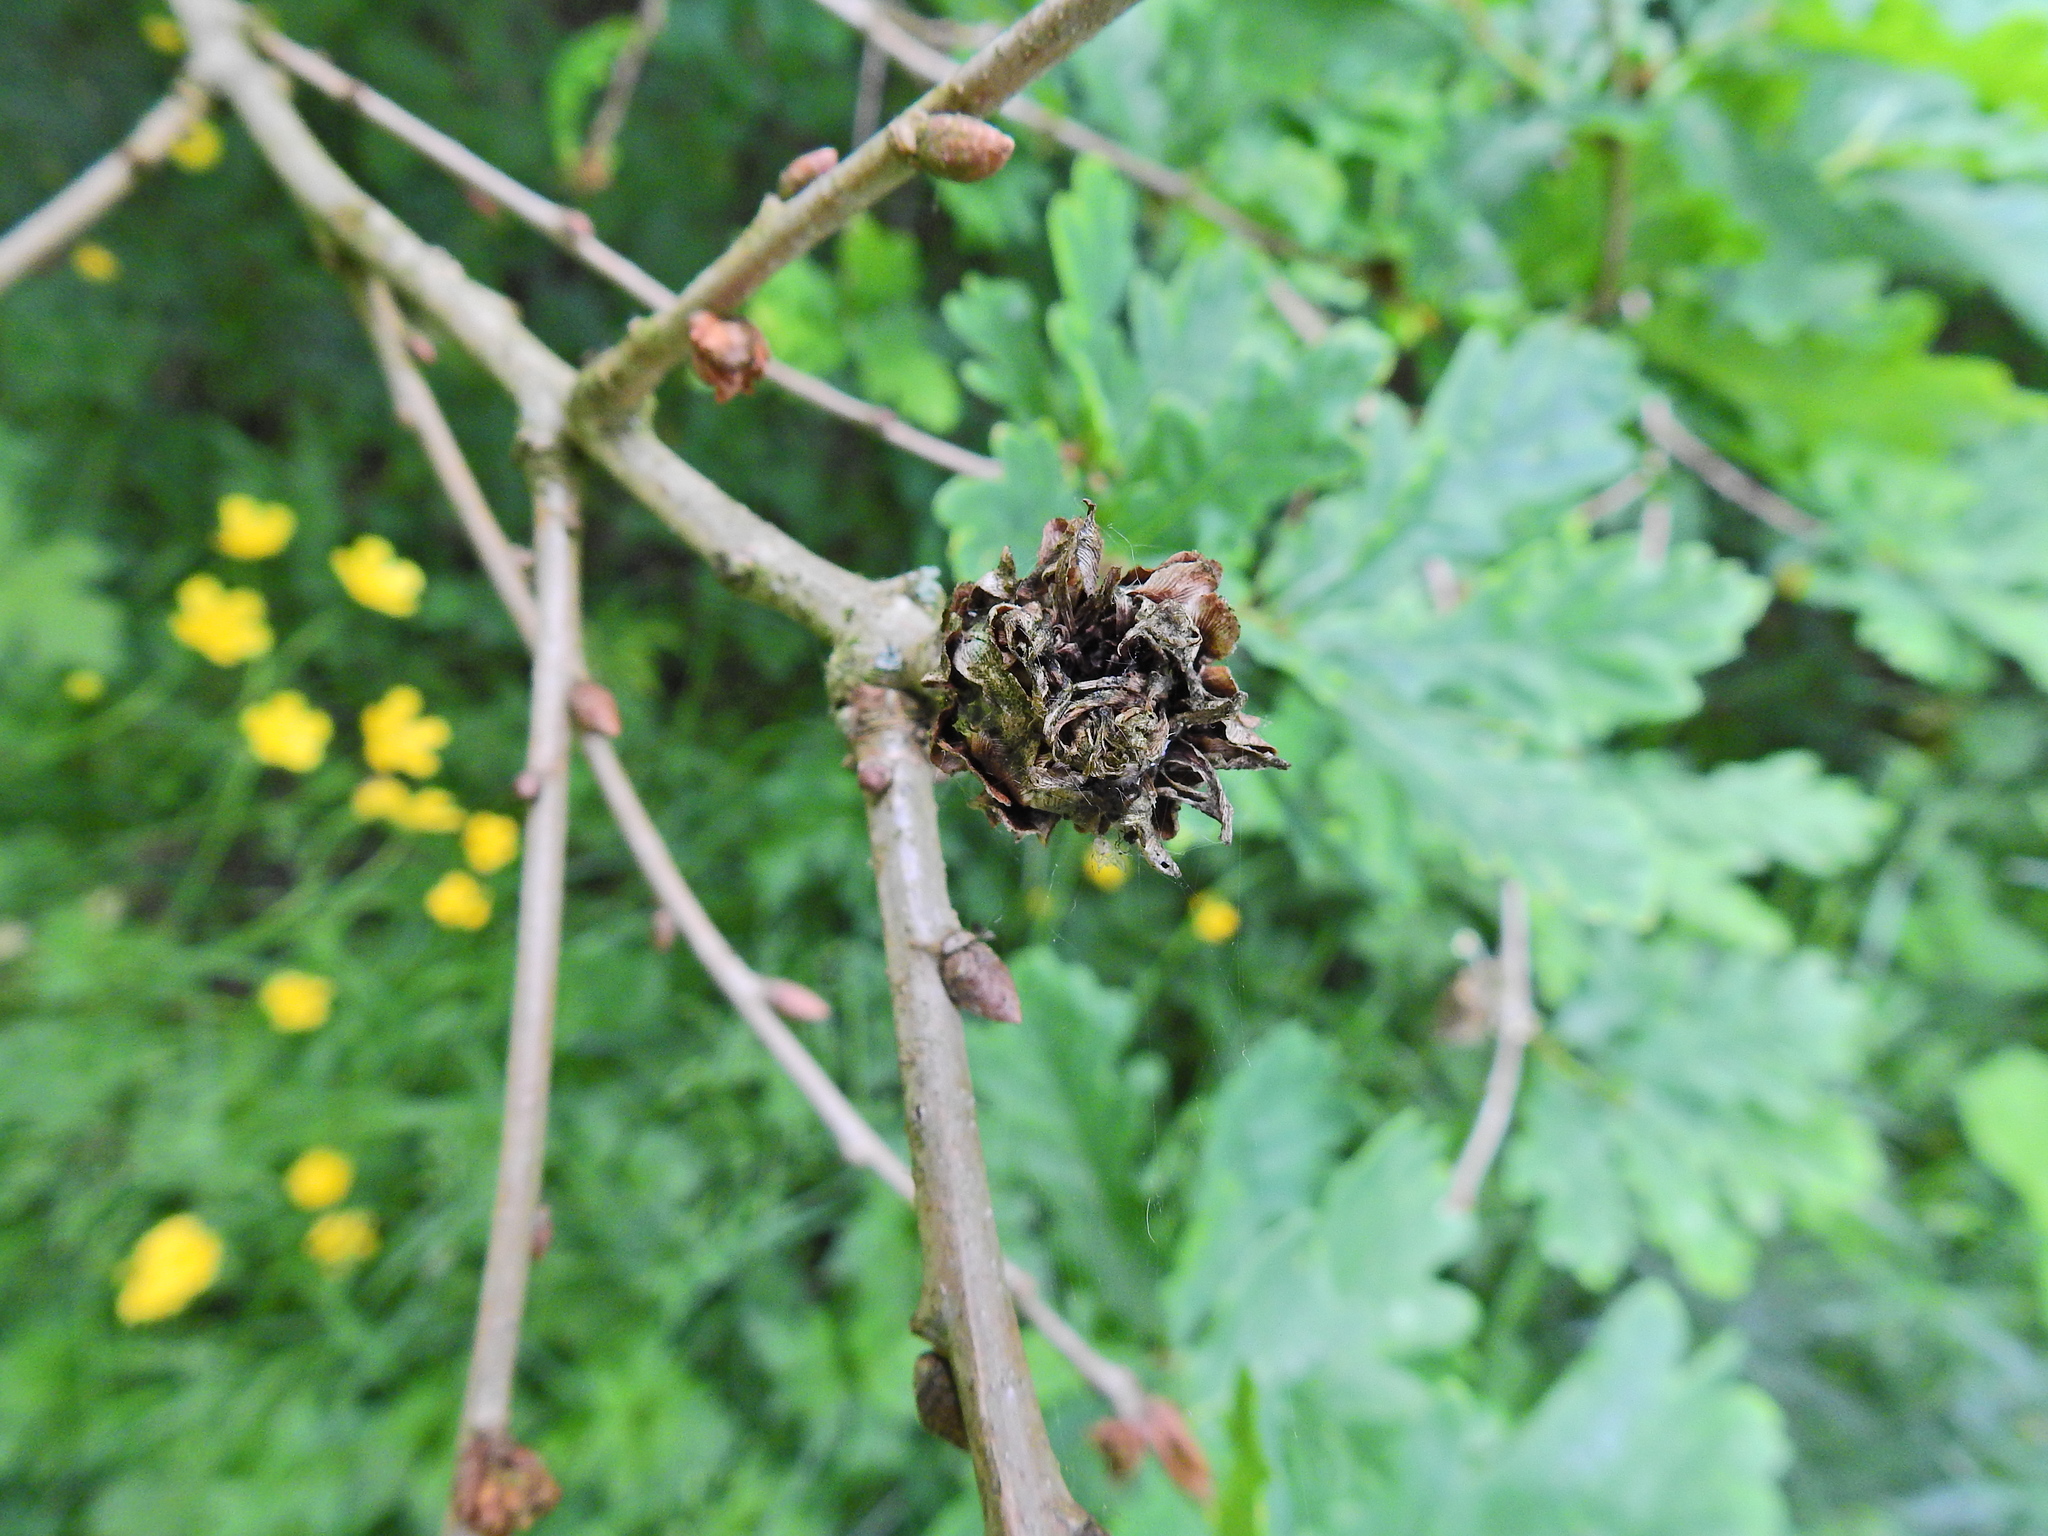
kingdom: Animalia
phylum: Arthropoda
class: Insecta
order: Hymenoptera
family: Cynipidae
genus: Andricus
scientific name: Andricus foecundatrix
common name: Artichoke gall
